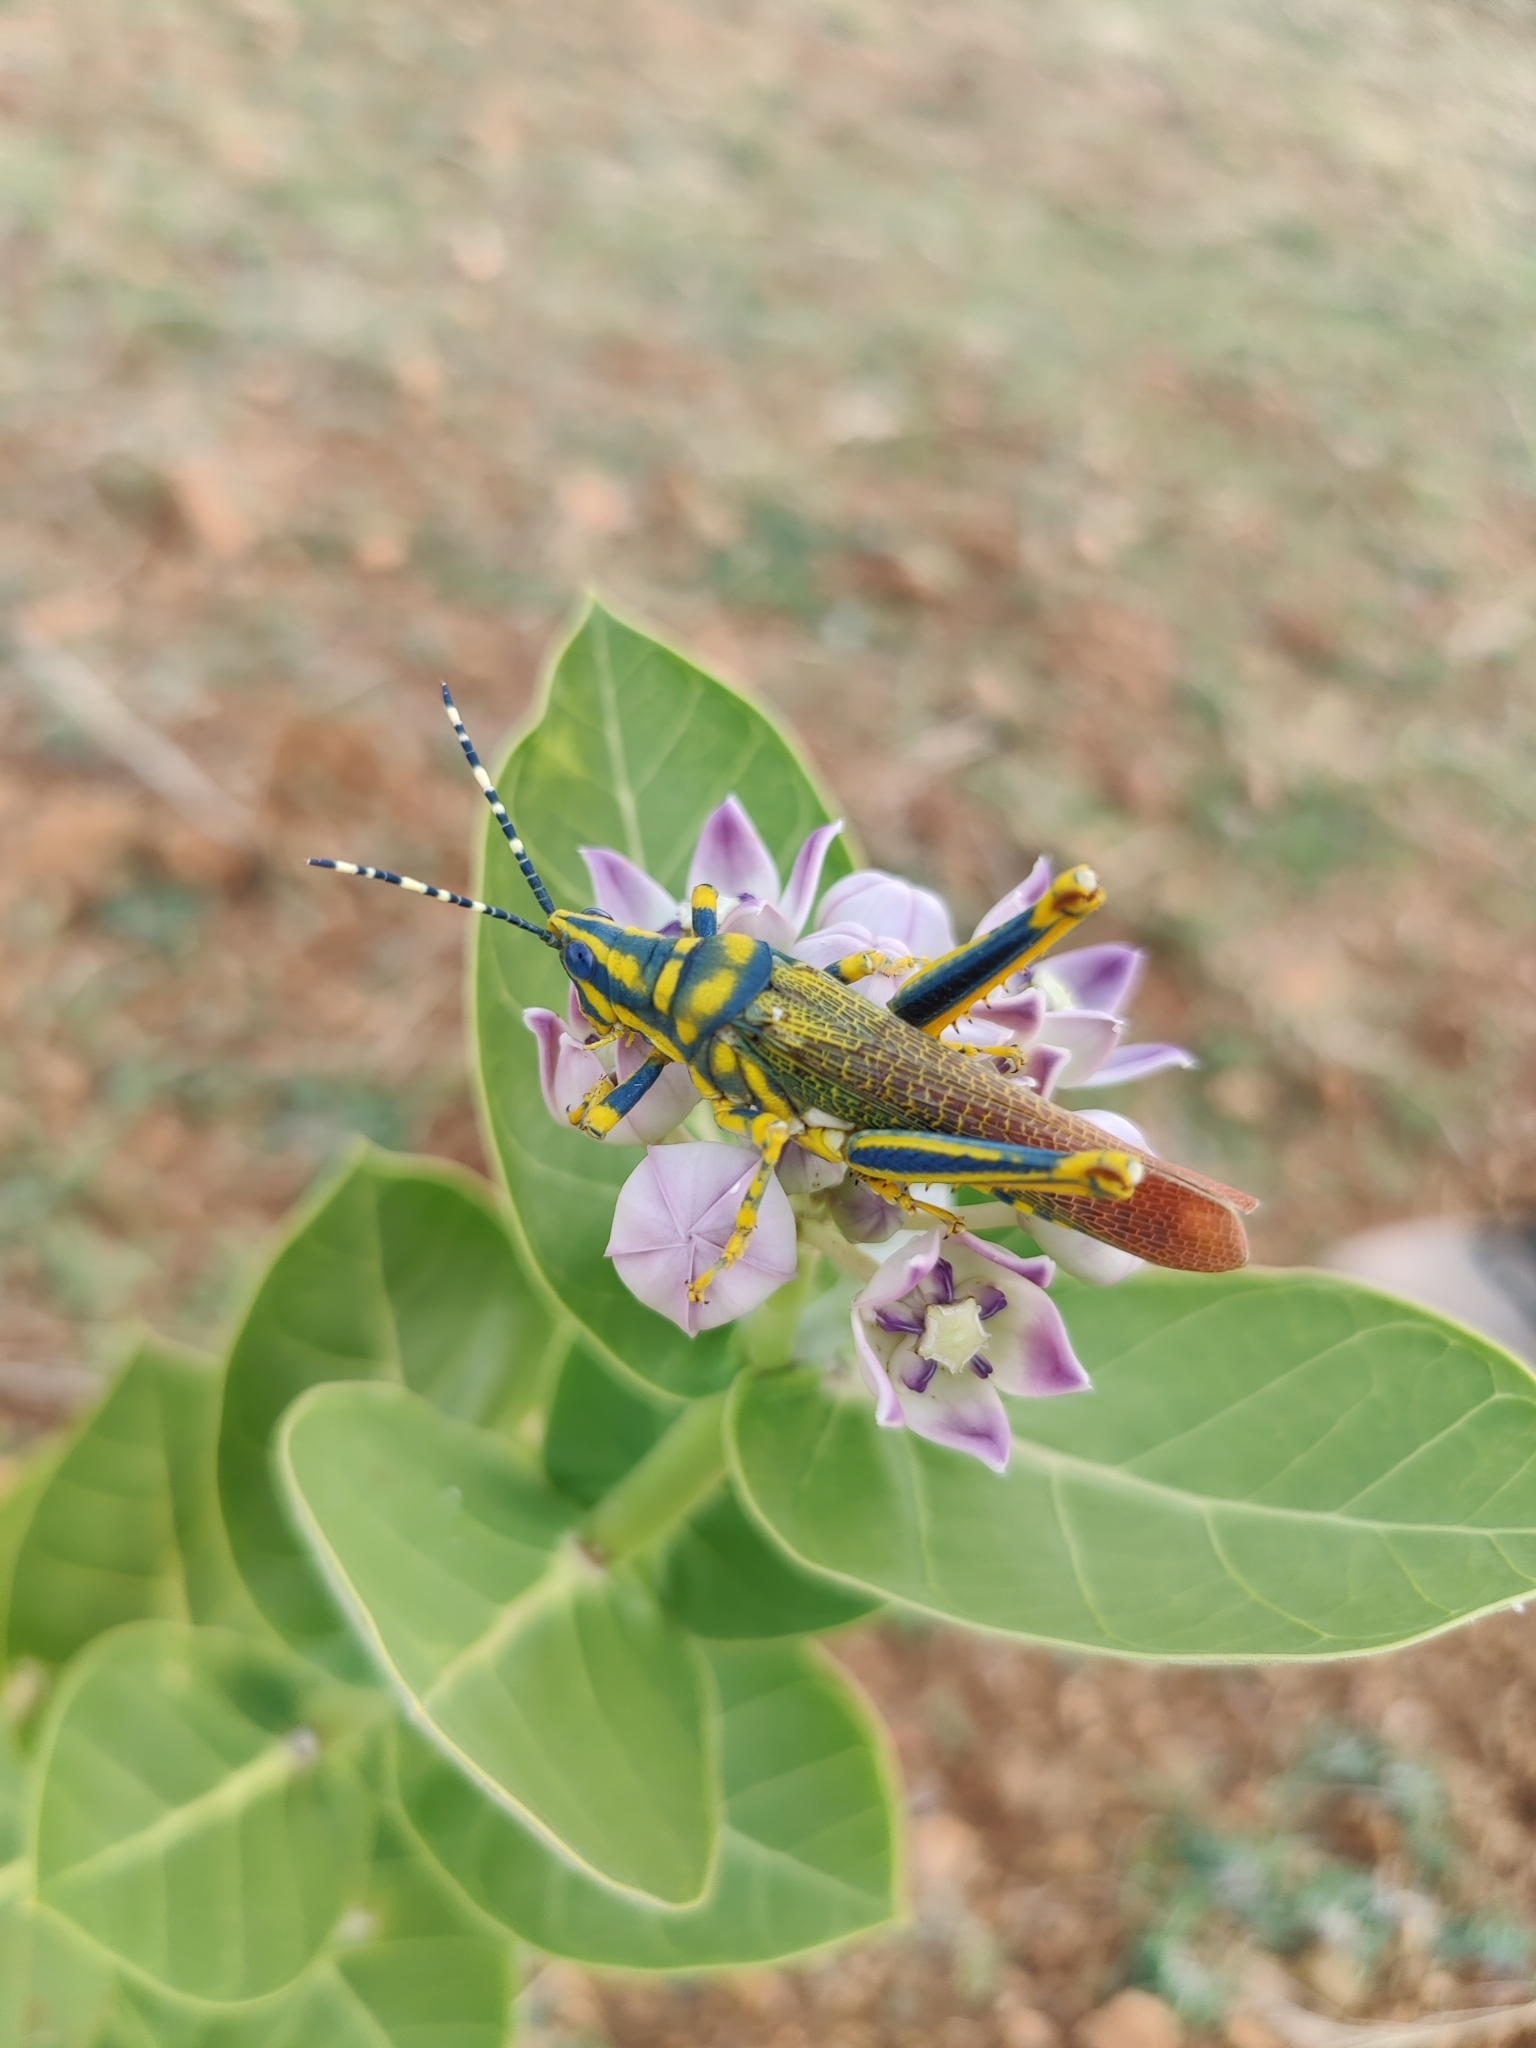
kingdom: Animalia
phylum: Arthropoda
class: Insecta
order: Orthoptera
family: Pyrgomorphidae
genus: Poekilocerus
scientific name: Poekilocerus pictus
